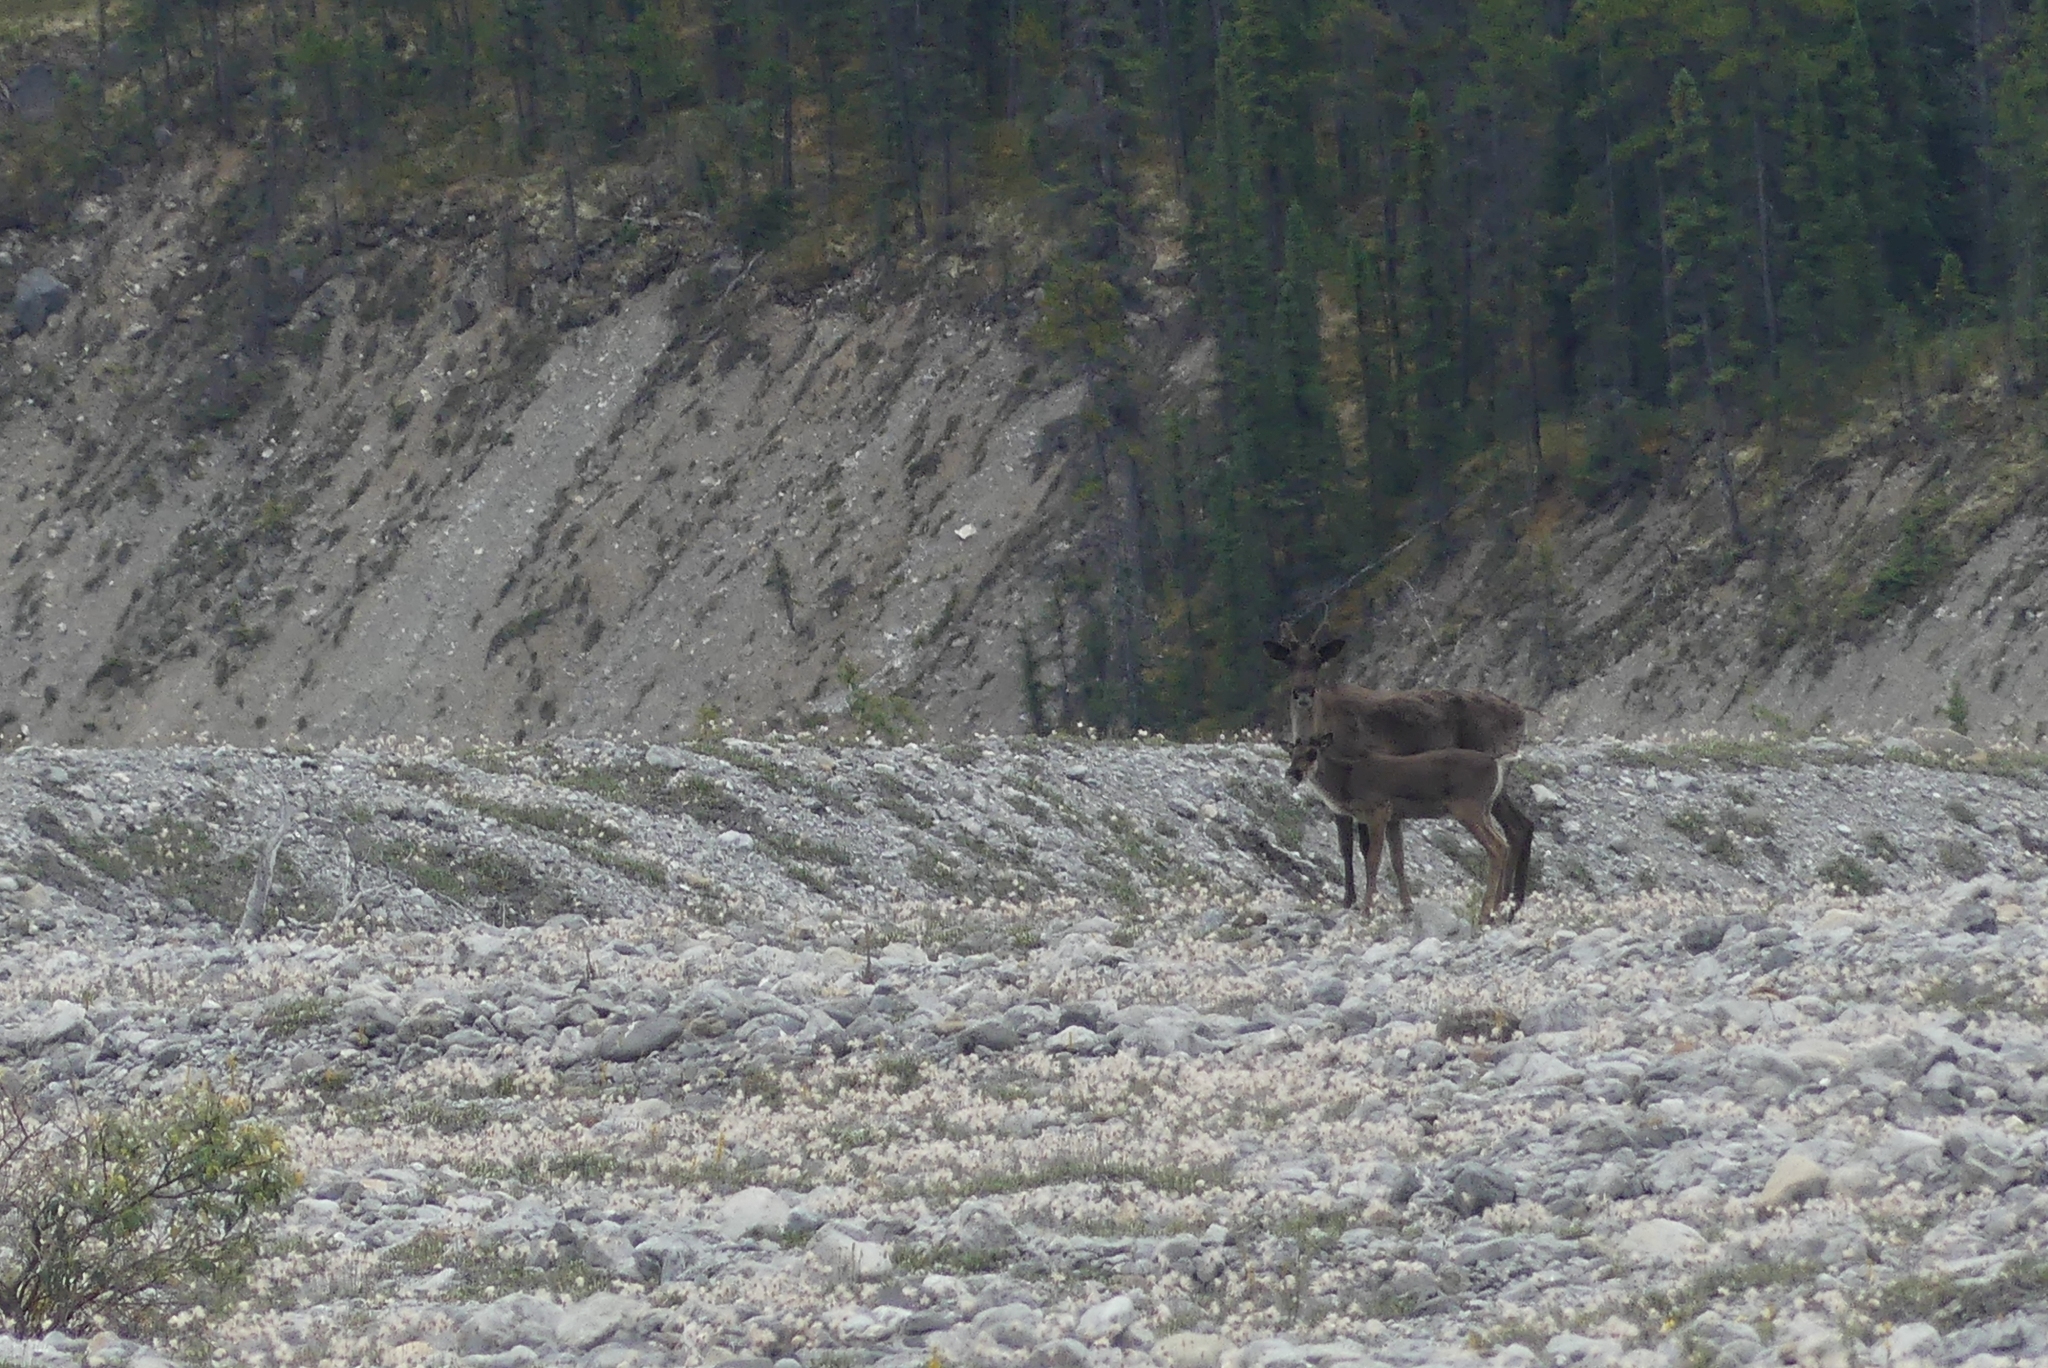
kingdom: Animalia
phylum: Chordata
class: Mammalia
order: Artiodactyla
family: Cervidae
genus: Rangifer
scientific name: Rangifer tarandus
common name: Reindeer
